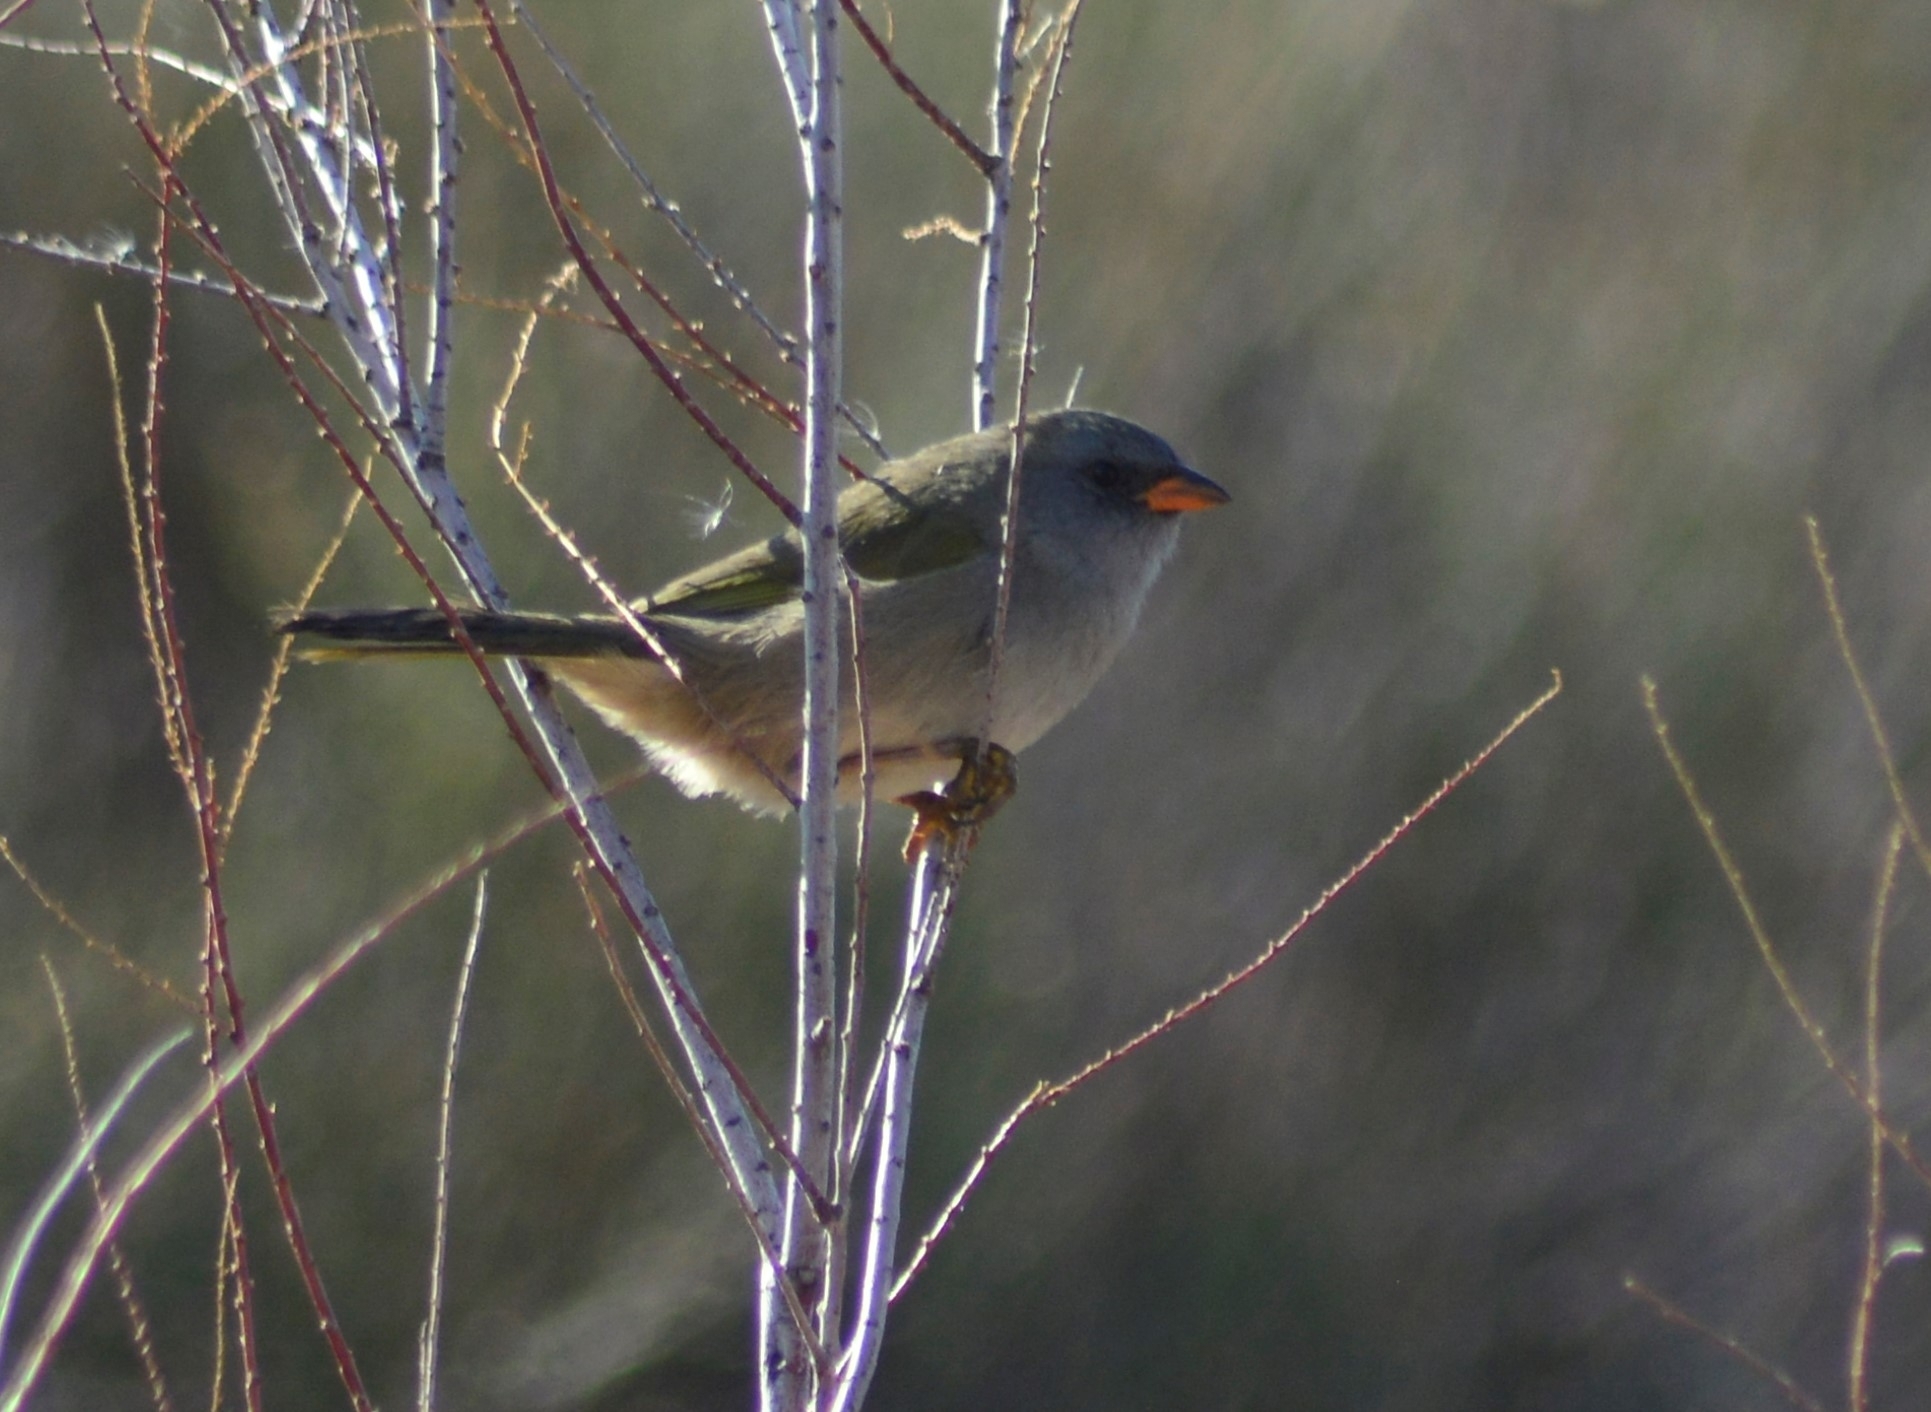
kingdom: Animalia
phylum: Chordata
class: Aves
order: Passeriformes
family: Thraupidae
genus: Embernagra
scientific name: Embernagra platensis
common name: Pampa finch
